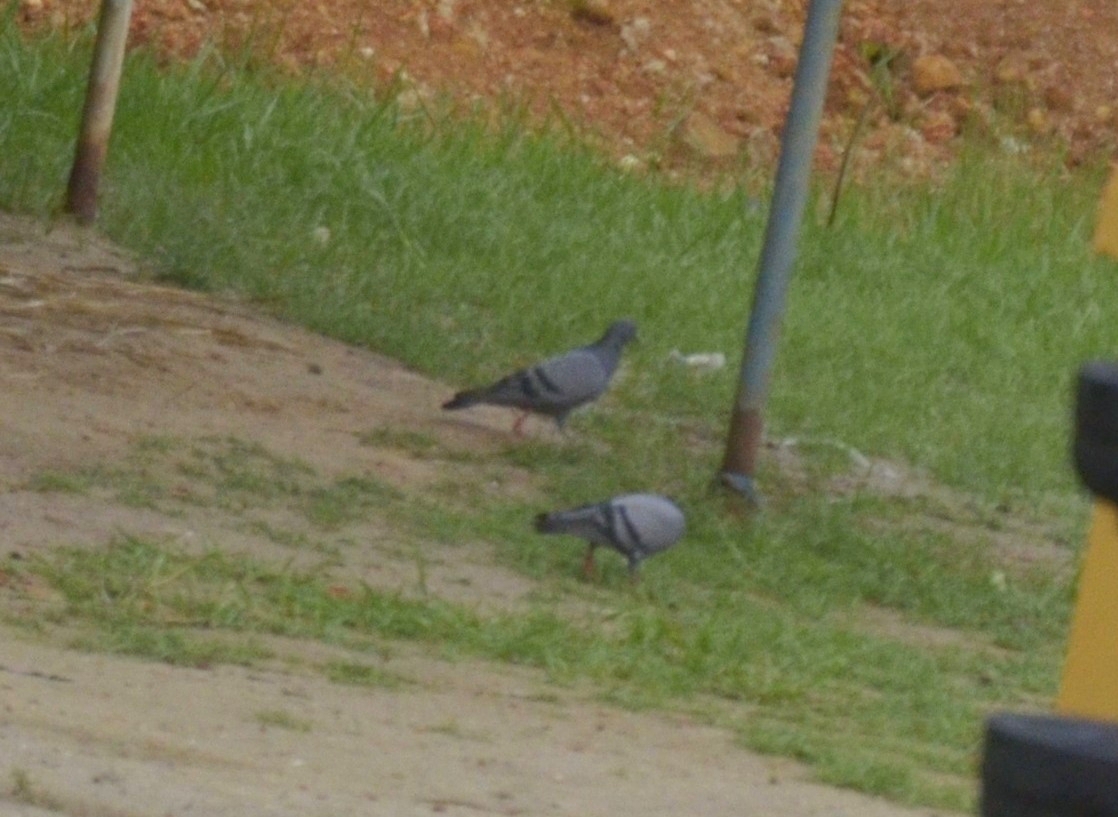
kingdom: Animalia
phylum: Chordata
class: Aves
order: Columbiformes
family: Columbidae
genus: Columba
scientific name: Columba livia
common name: Rock pigeon
